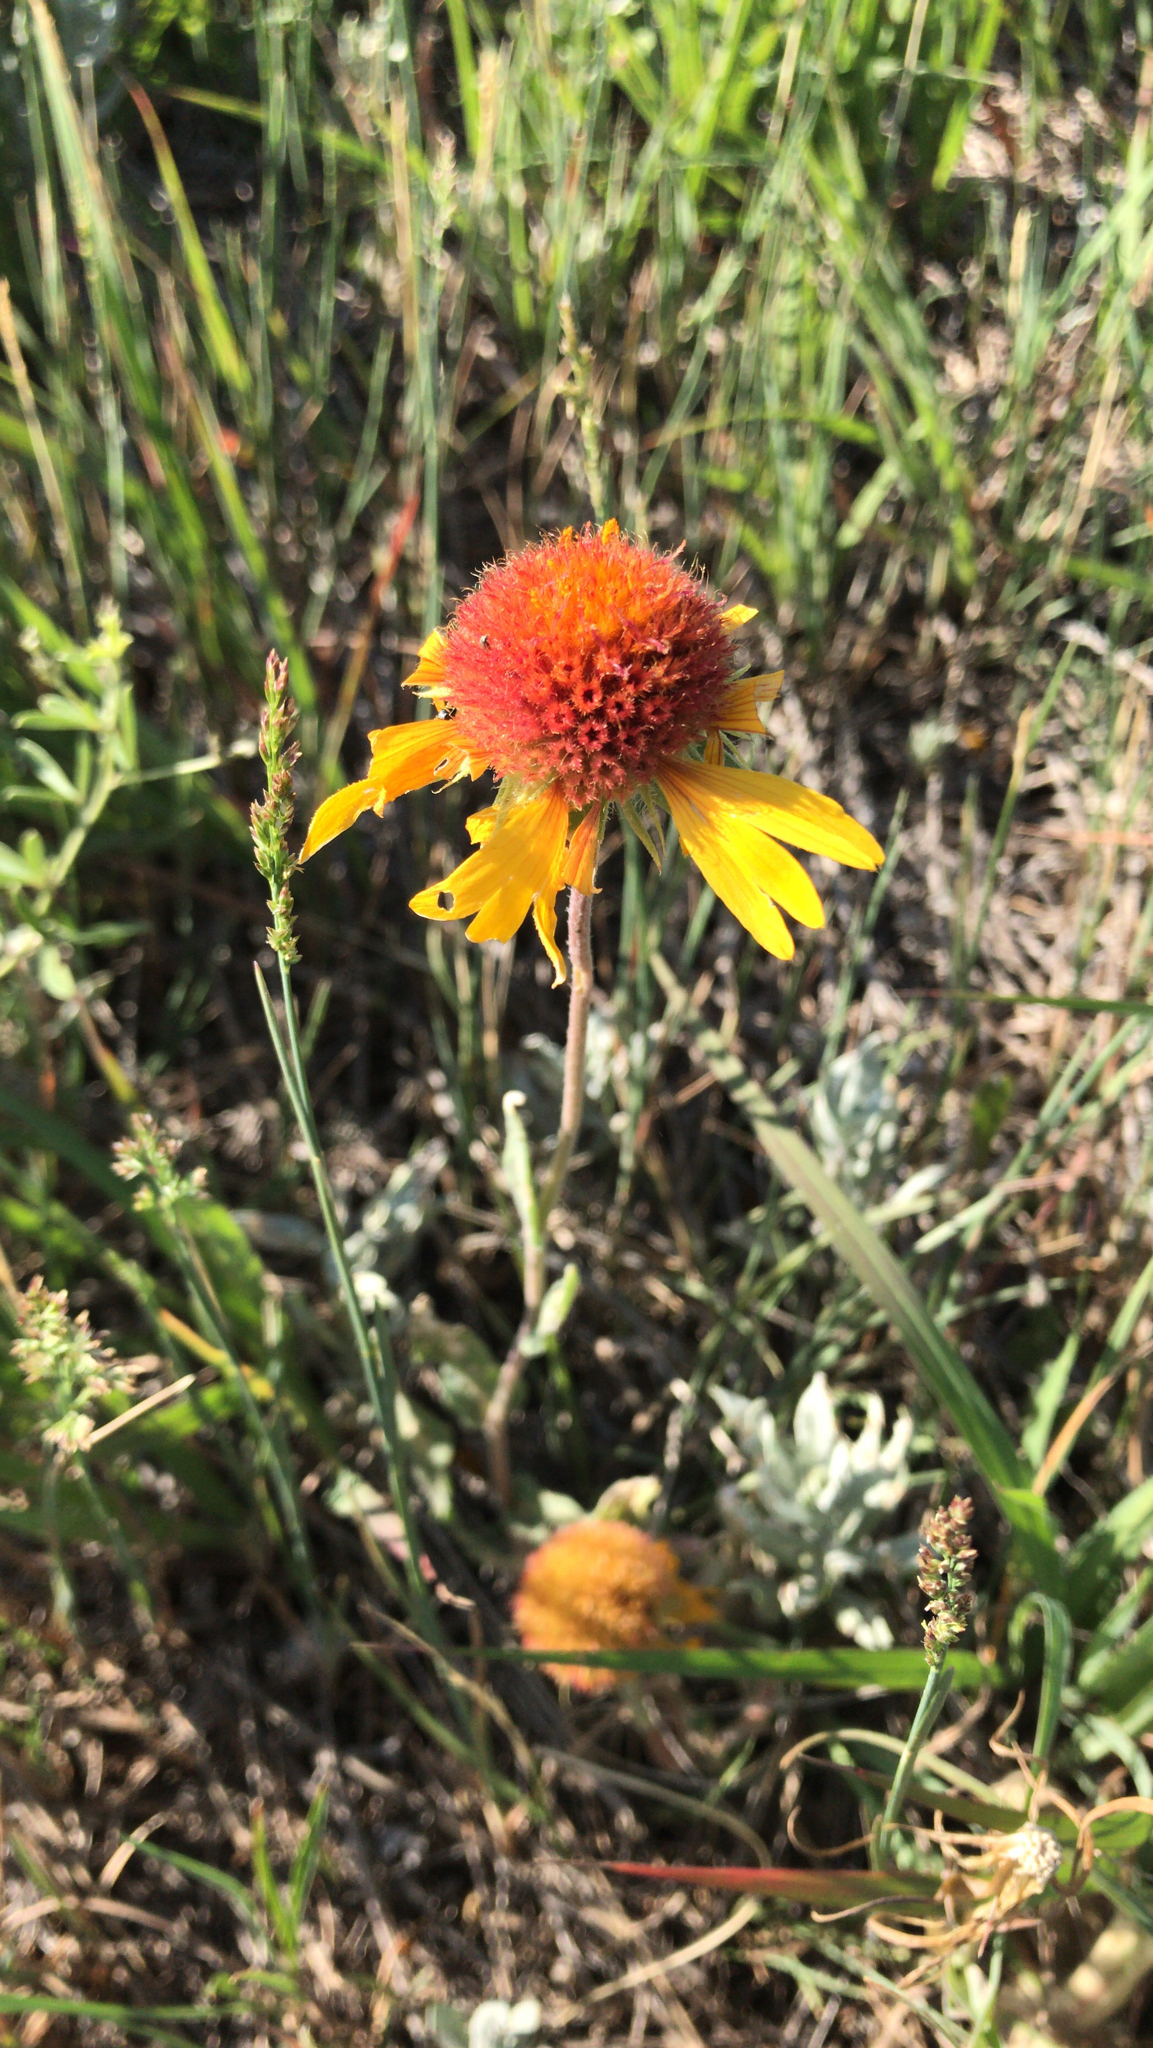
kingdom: Plantae
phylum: Tracheophyta
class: Magnoliopsida
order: Asterales
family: Asteraceae
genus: Gaillardia
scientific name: Gaillardia aristata
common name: Blanket-flower
